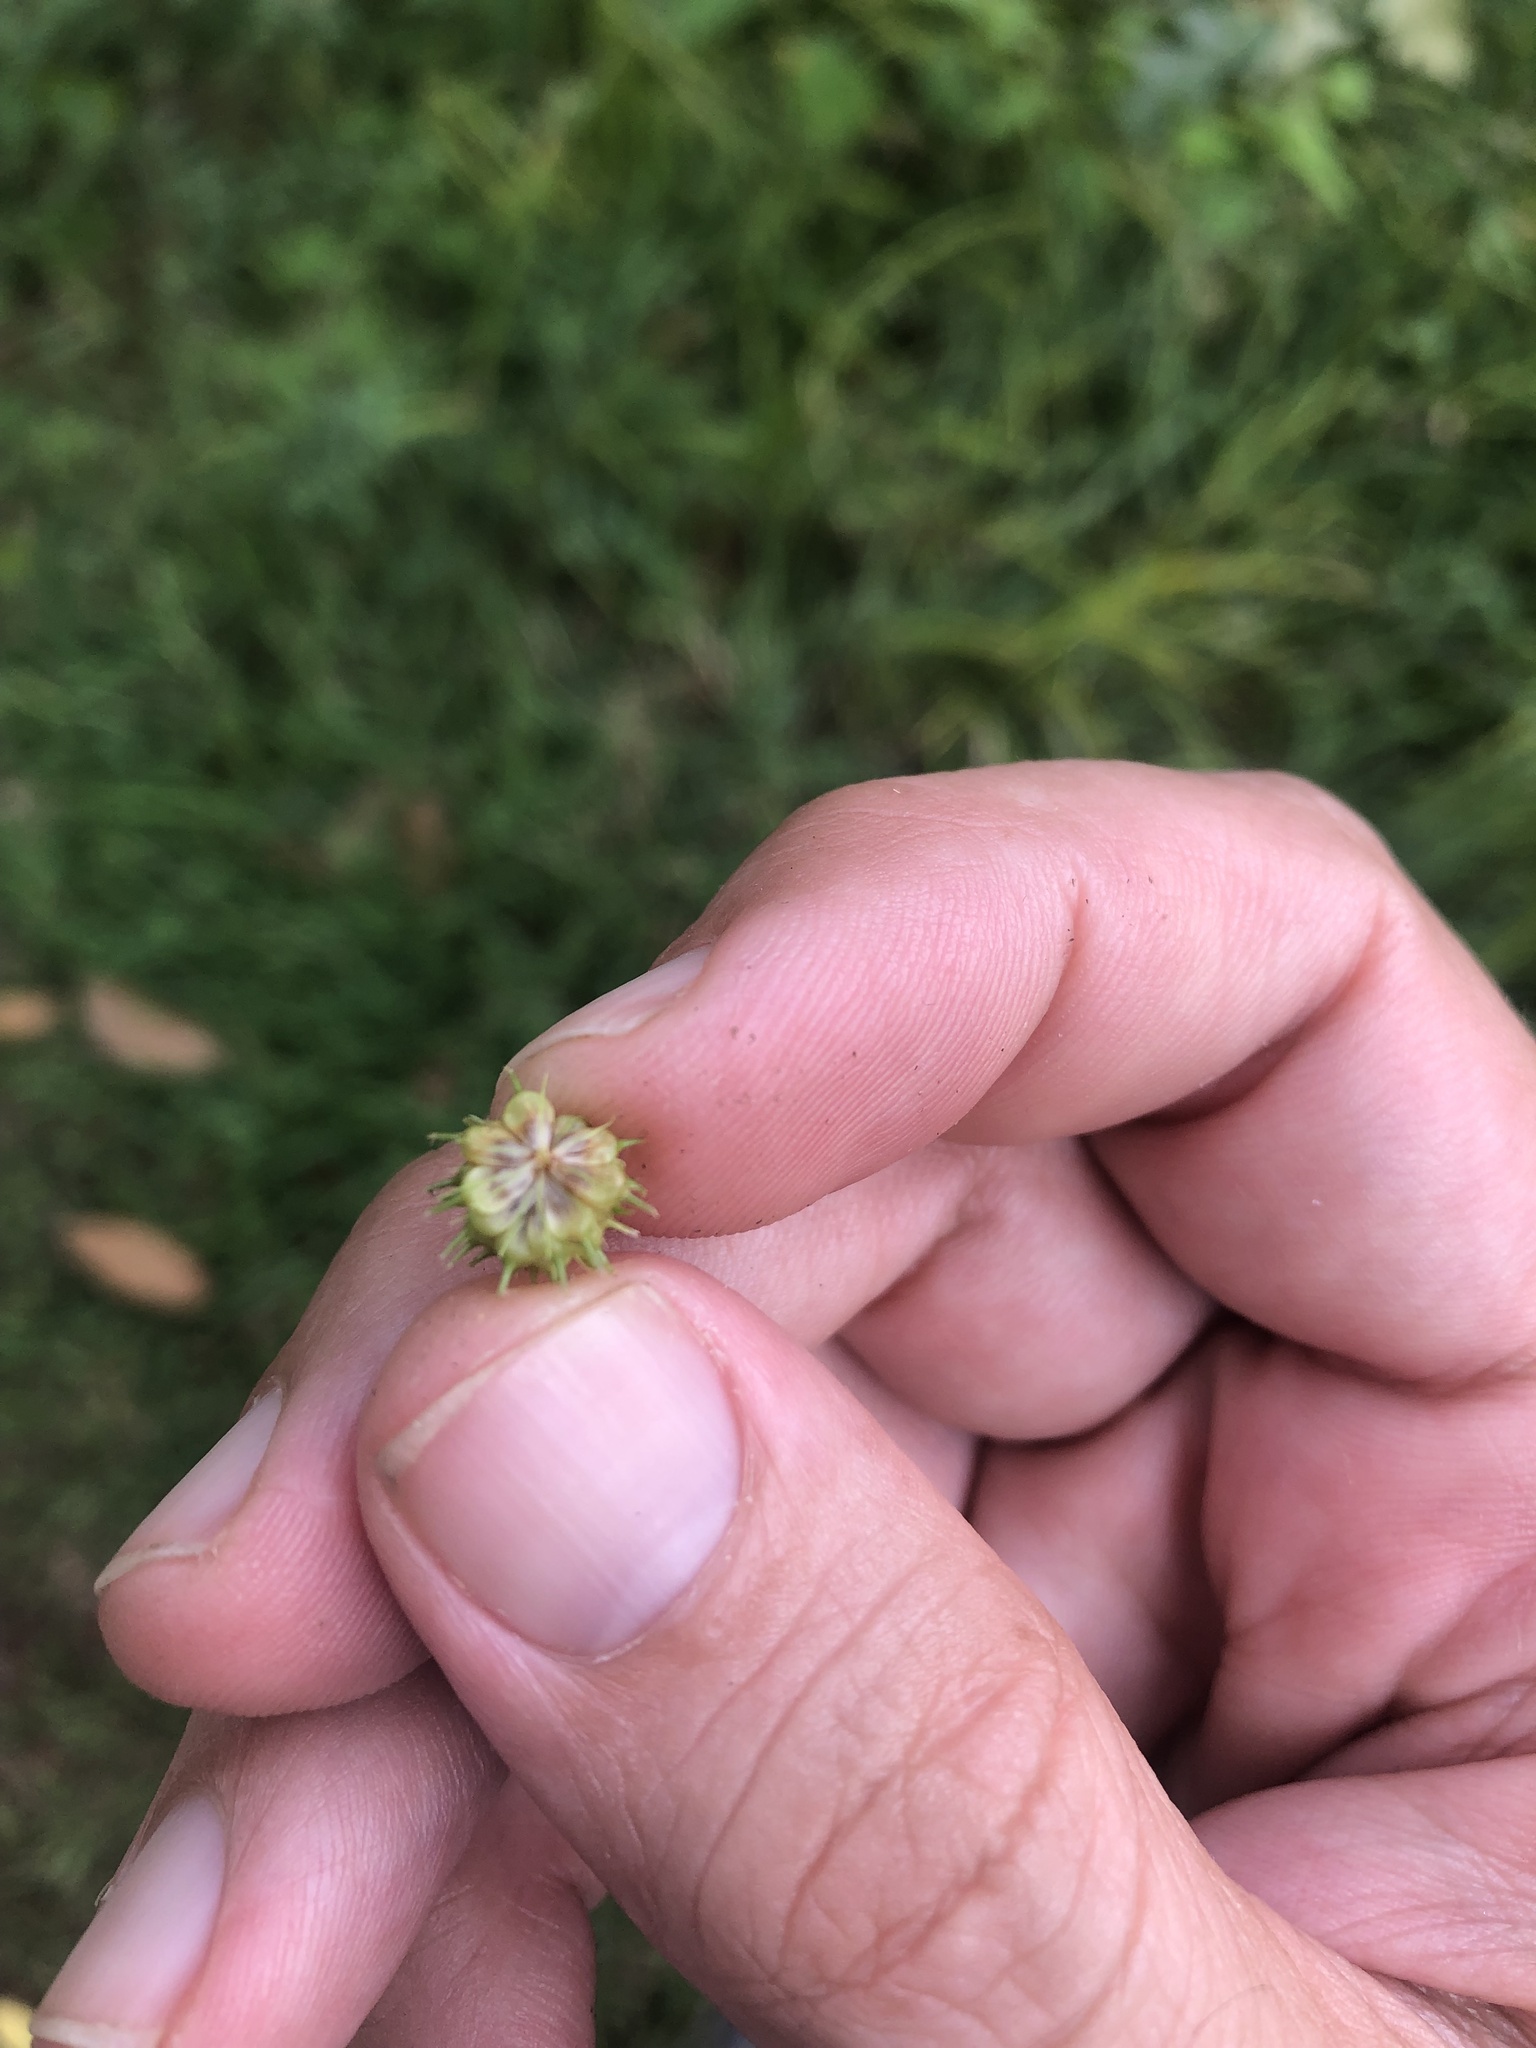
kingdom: Plantae
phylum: Tracheophyta
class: Liliopsida
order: Poales
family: Cyperaceae
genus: Carex
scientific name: Carex aureolensis
